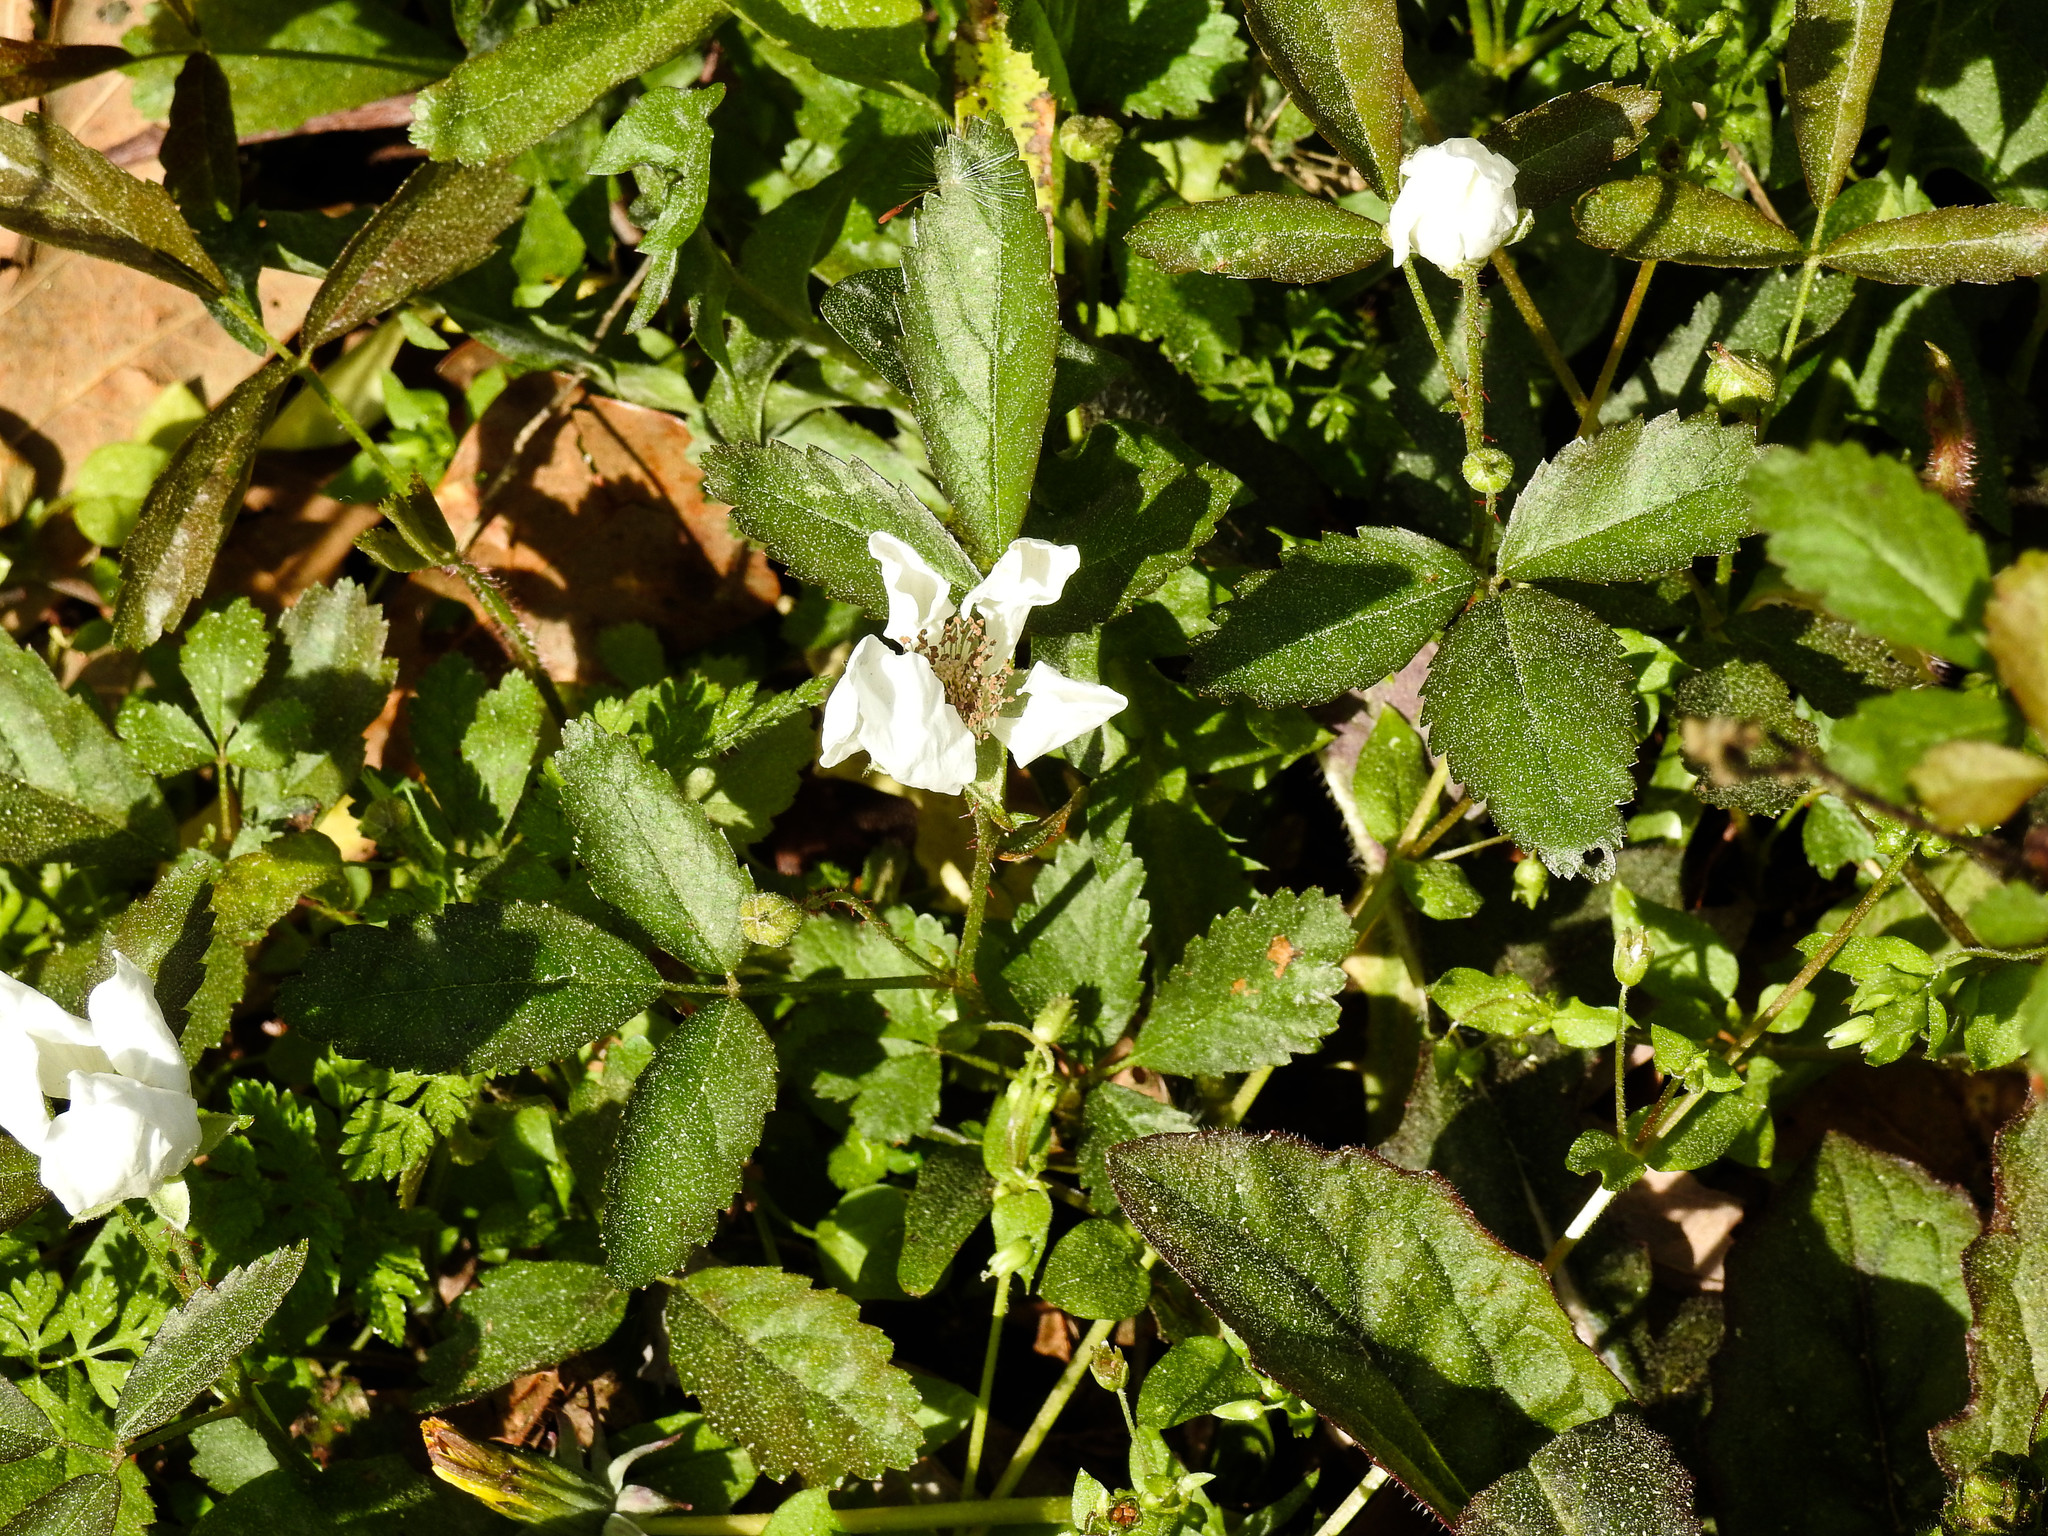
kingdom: Plantae
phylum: Tracheophyta
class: Magnoliopsida
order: Rosales
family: Rosaceae
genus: Rubus
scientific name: Rubus trivialis
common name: Southern dewberry
